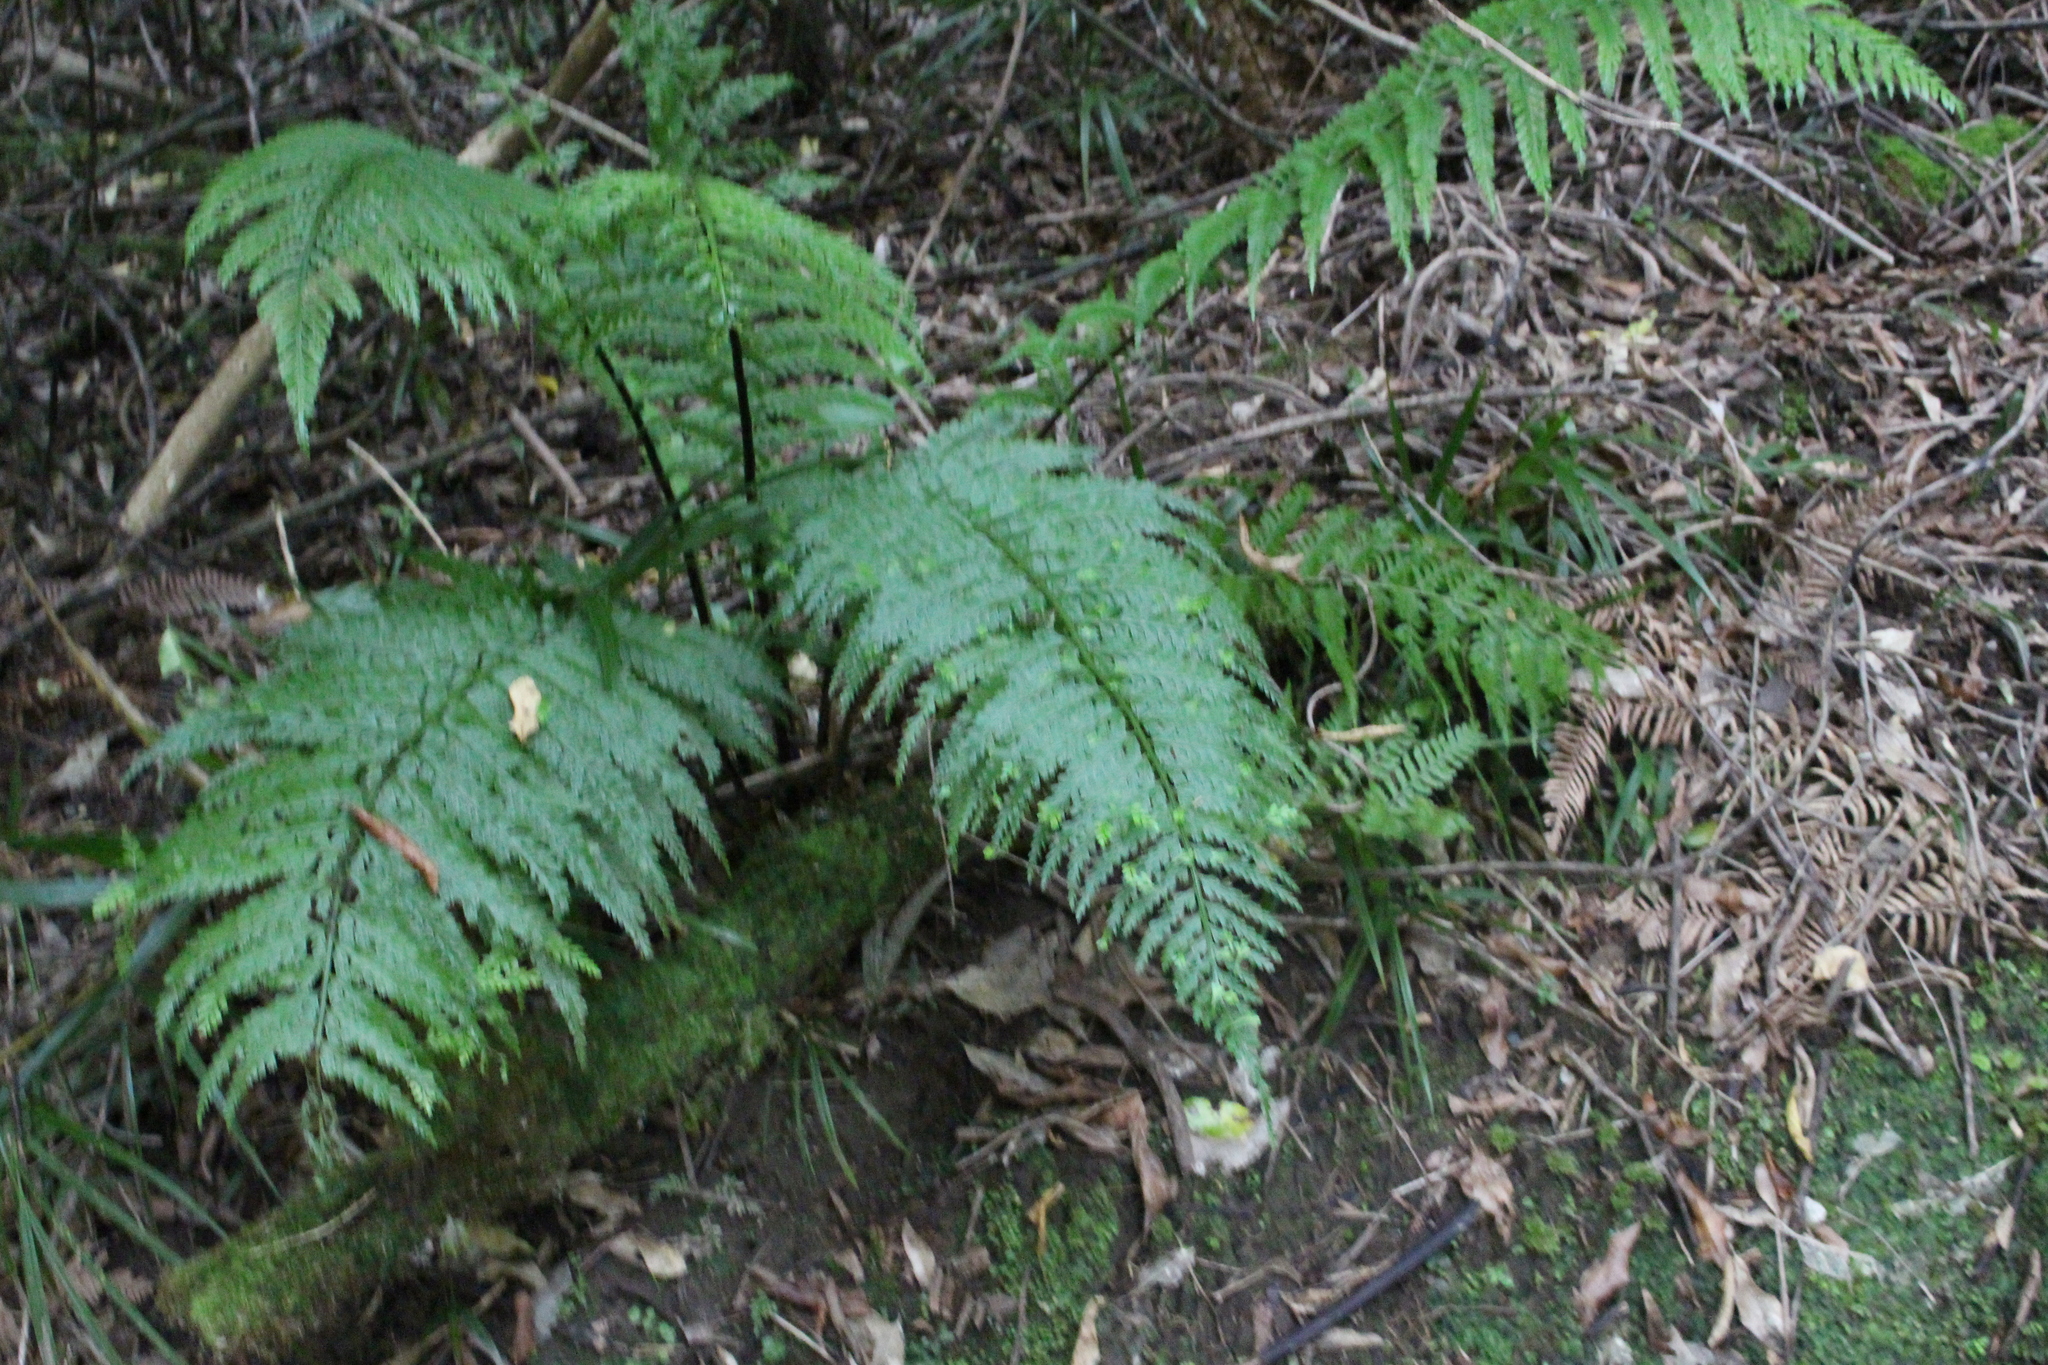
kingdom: Plantae
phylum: Tracheophyta
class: Polypodiopsida
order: Polypodiales
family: Aspleniaceae
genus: Asplenium
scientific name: Asplenium bulbiferum
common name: Mother fern
